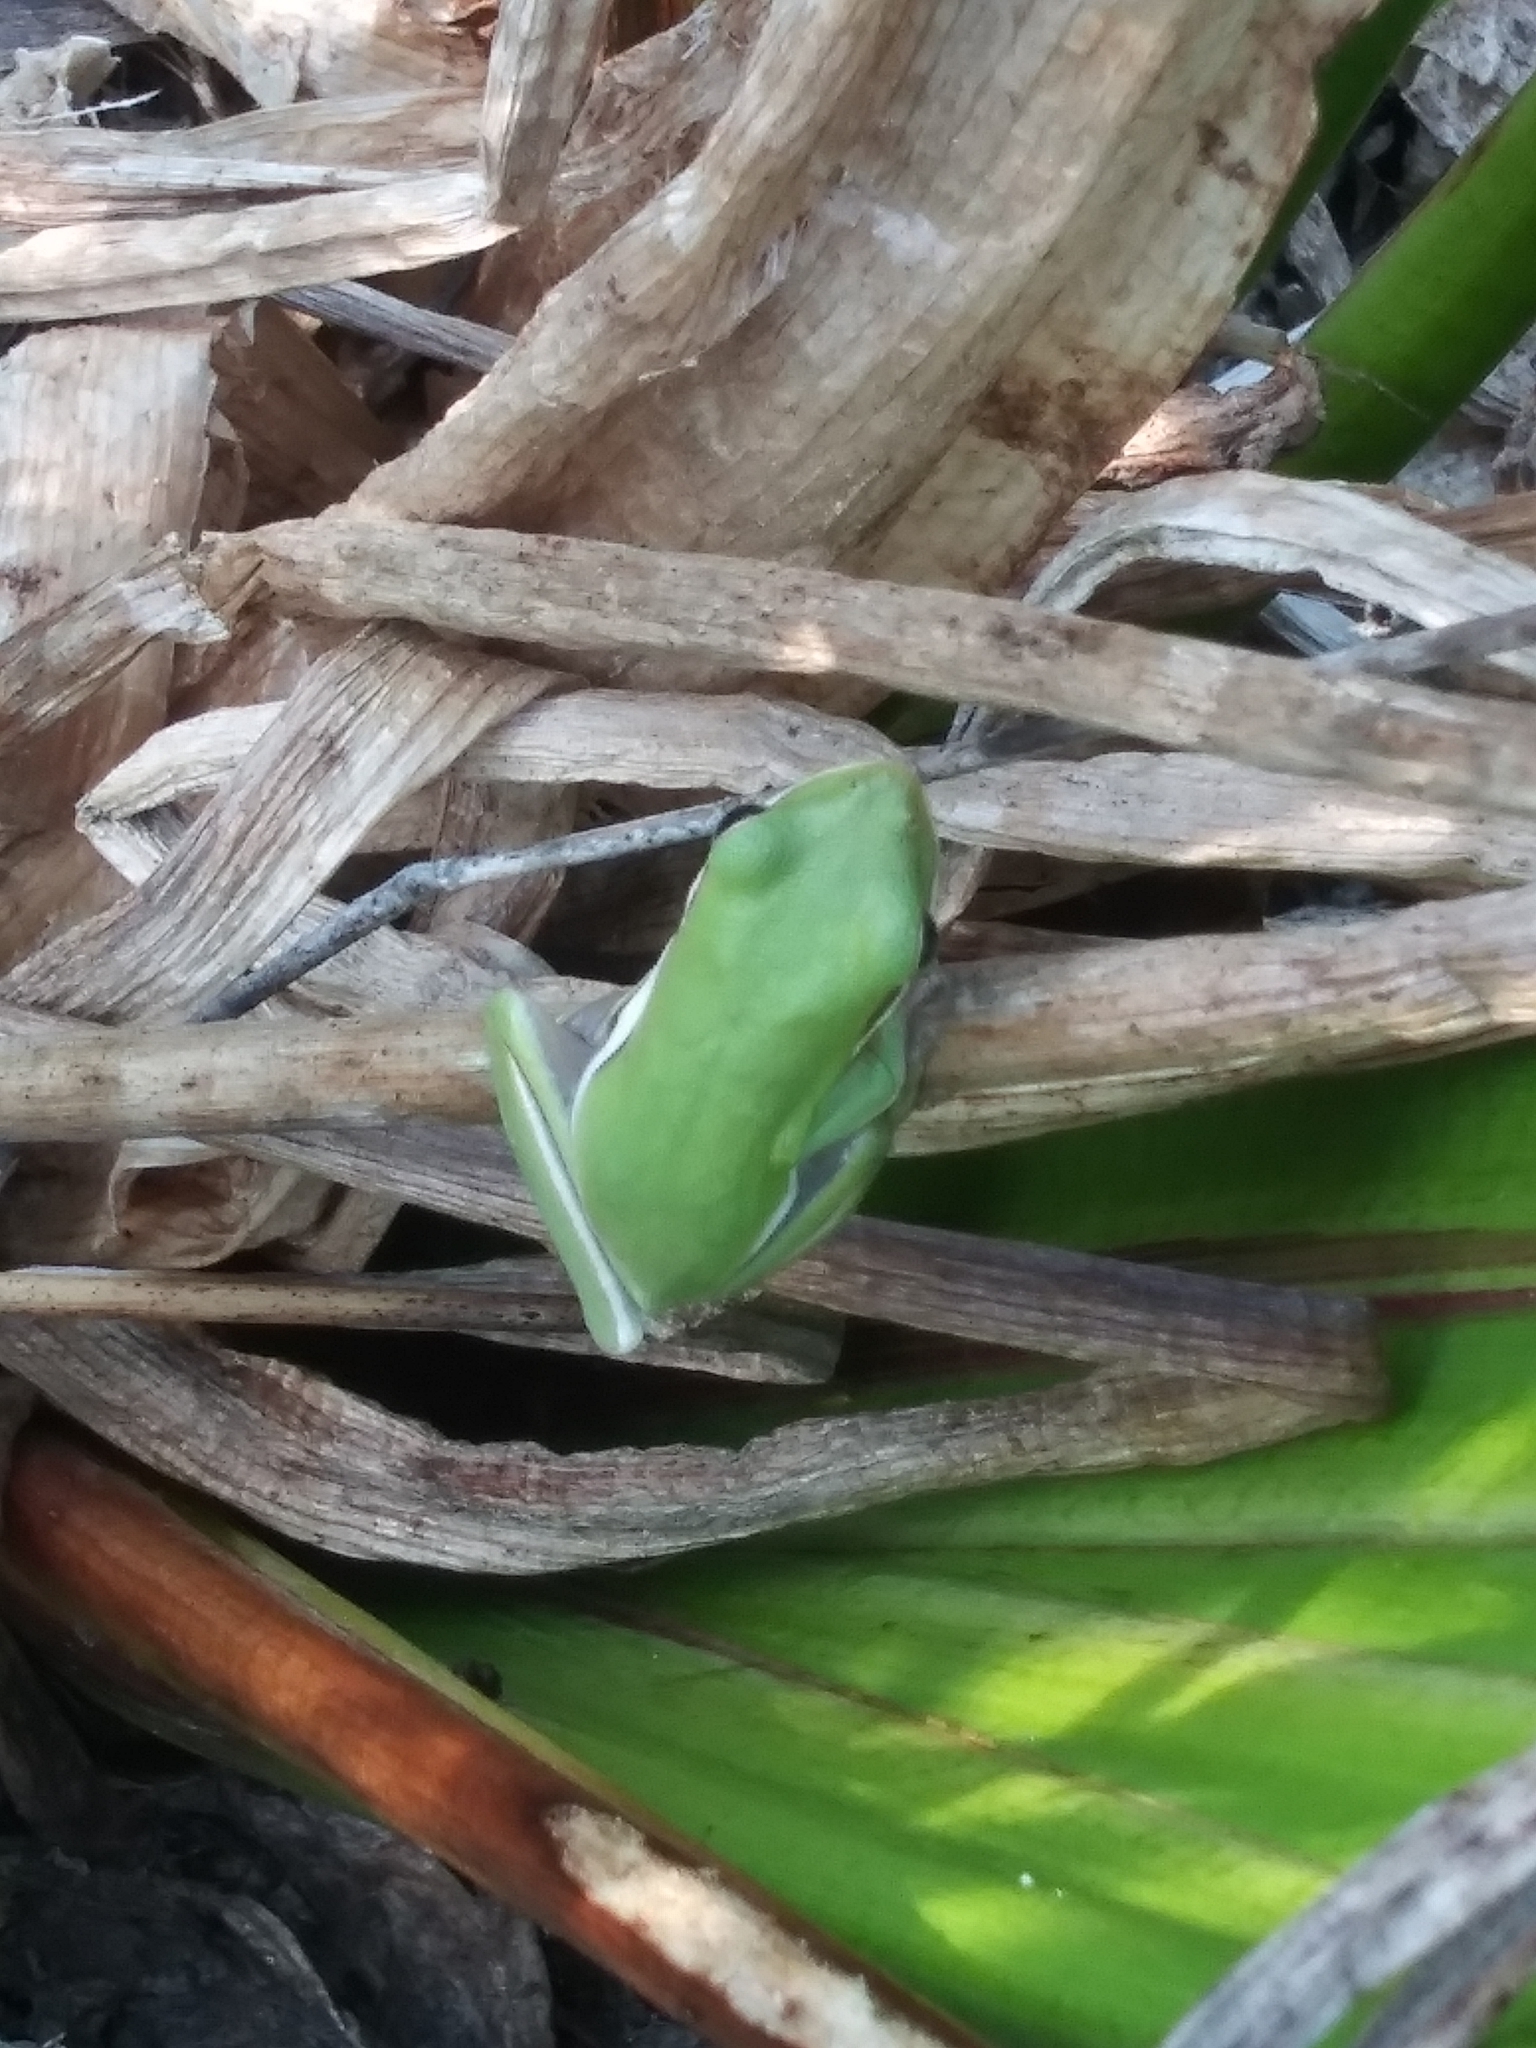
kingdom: Animalia
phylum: Chordata
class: Amphibia
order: Anura
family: Hylidae
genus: Dryophytes
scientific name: Dryophytes cinereus
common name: Green treefrog
